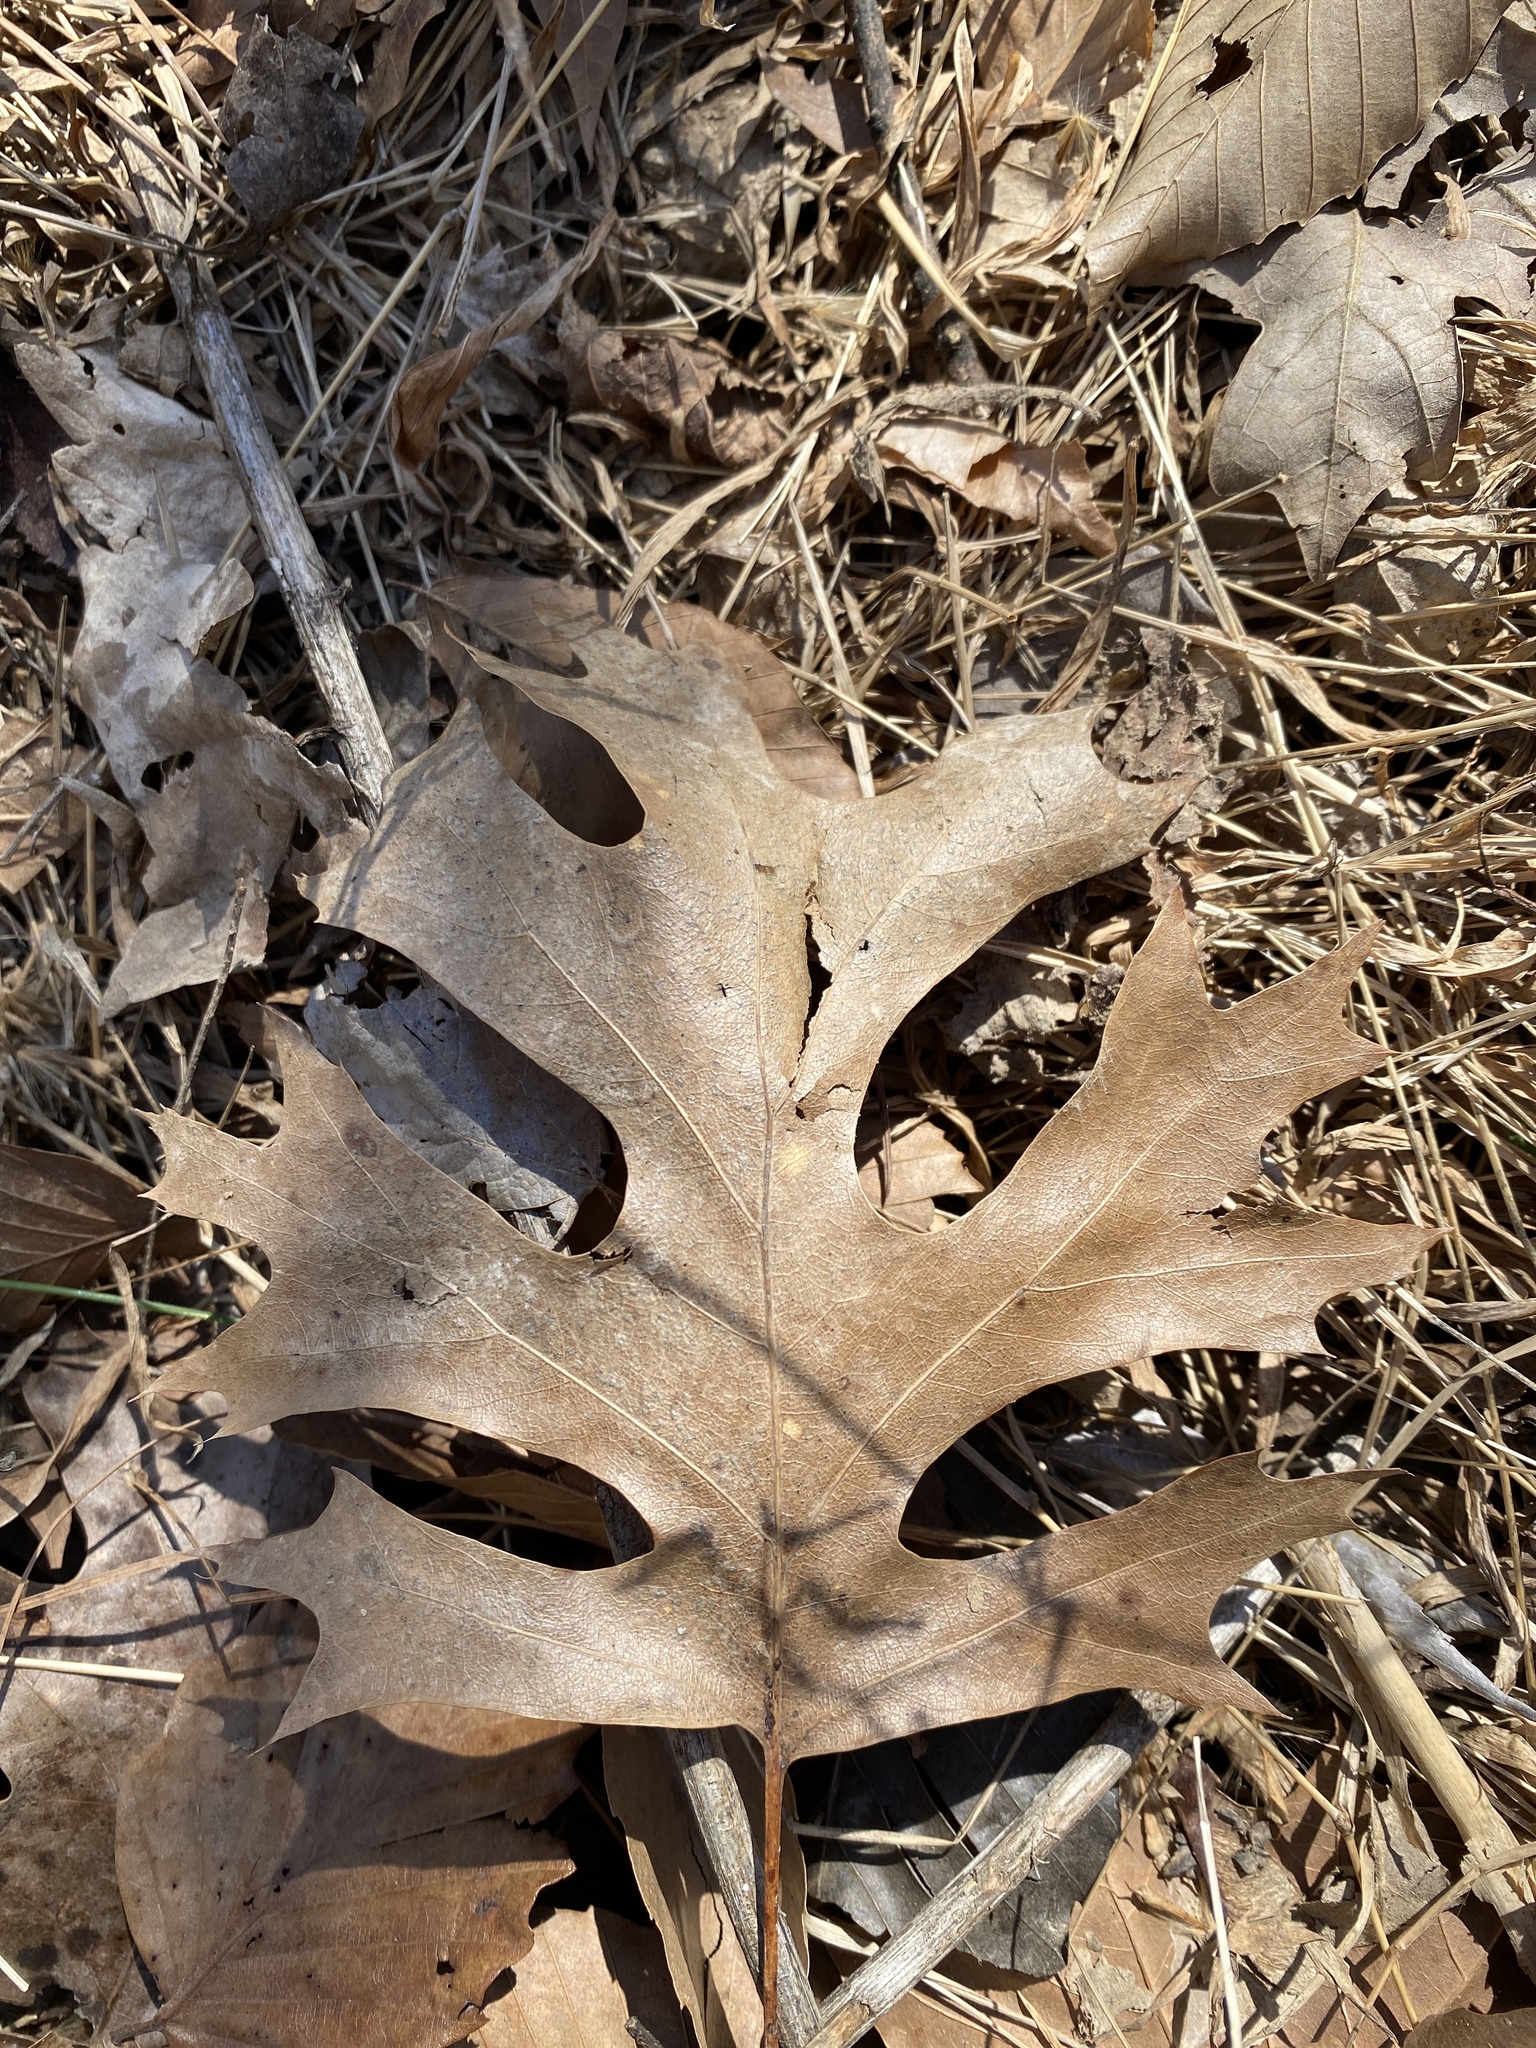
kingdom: Plantae
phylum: Tracheophyta
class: Magnoliopsida
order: Fagales
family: Fagaceae
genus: Quercus
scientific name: Quercus shumardii
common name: Shumard oak
